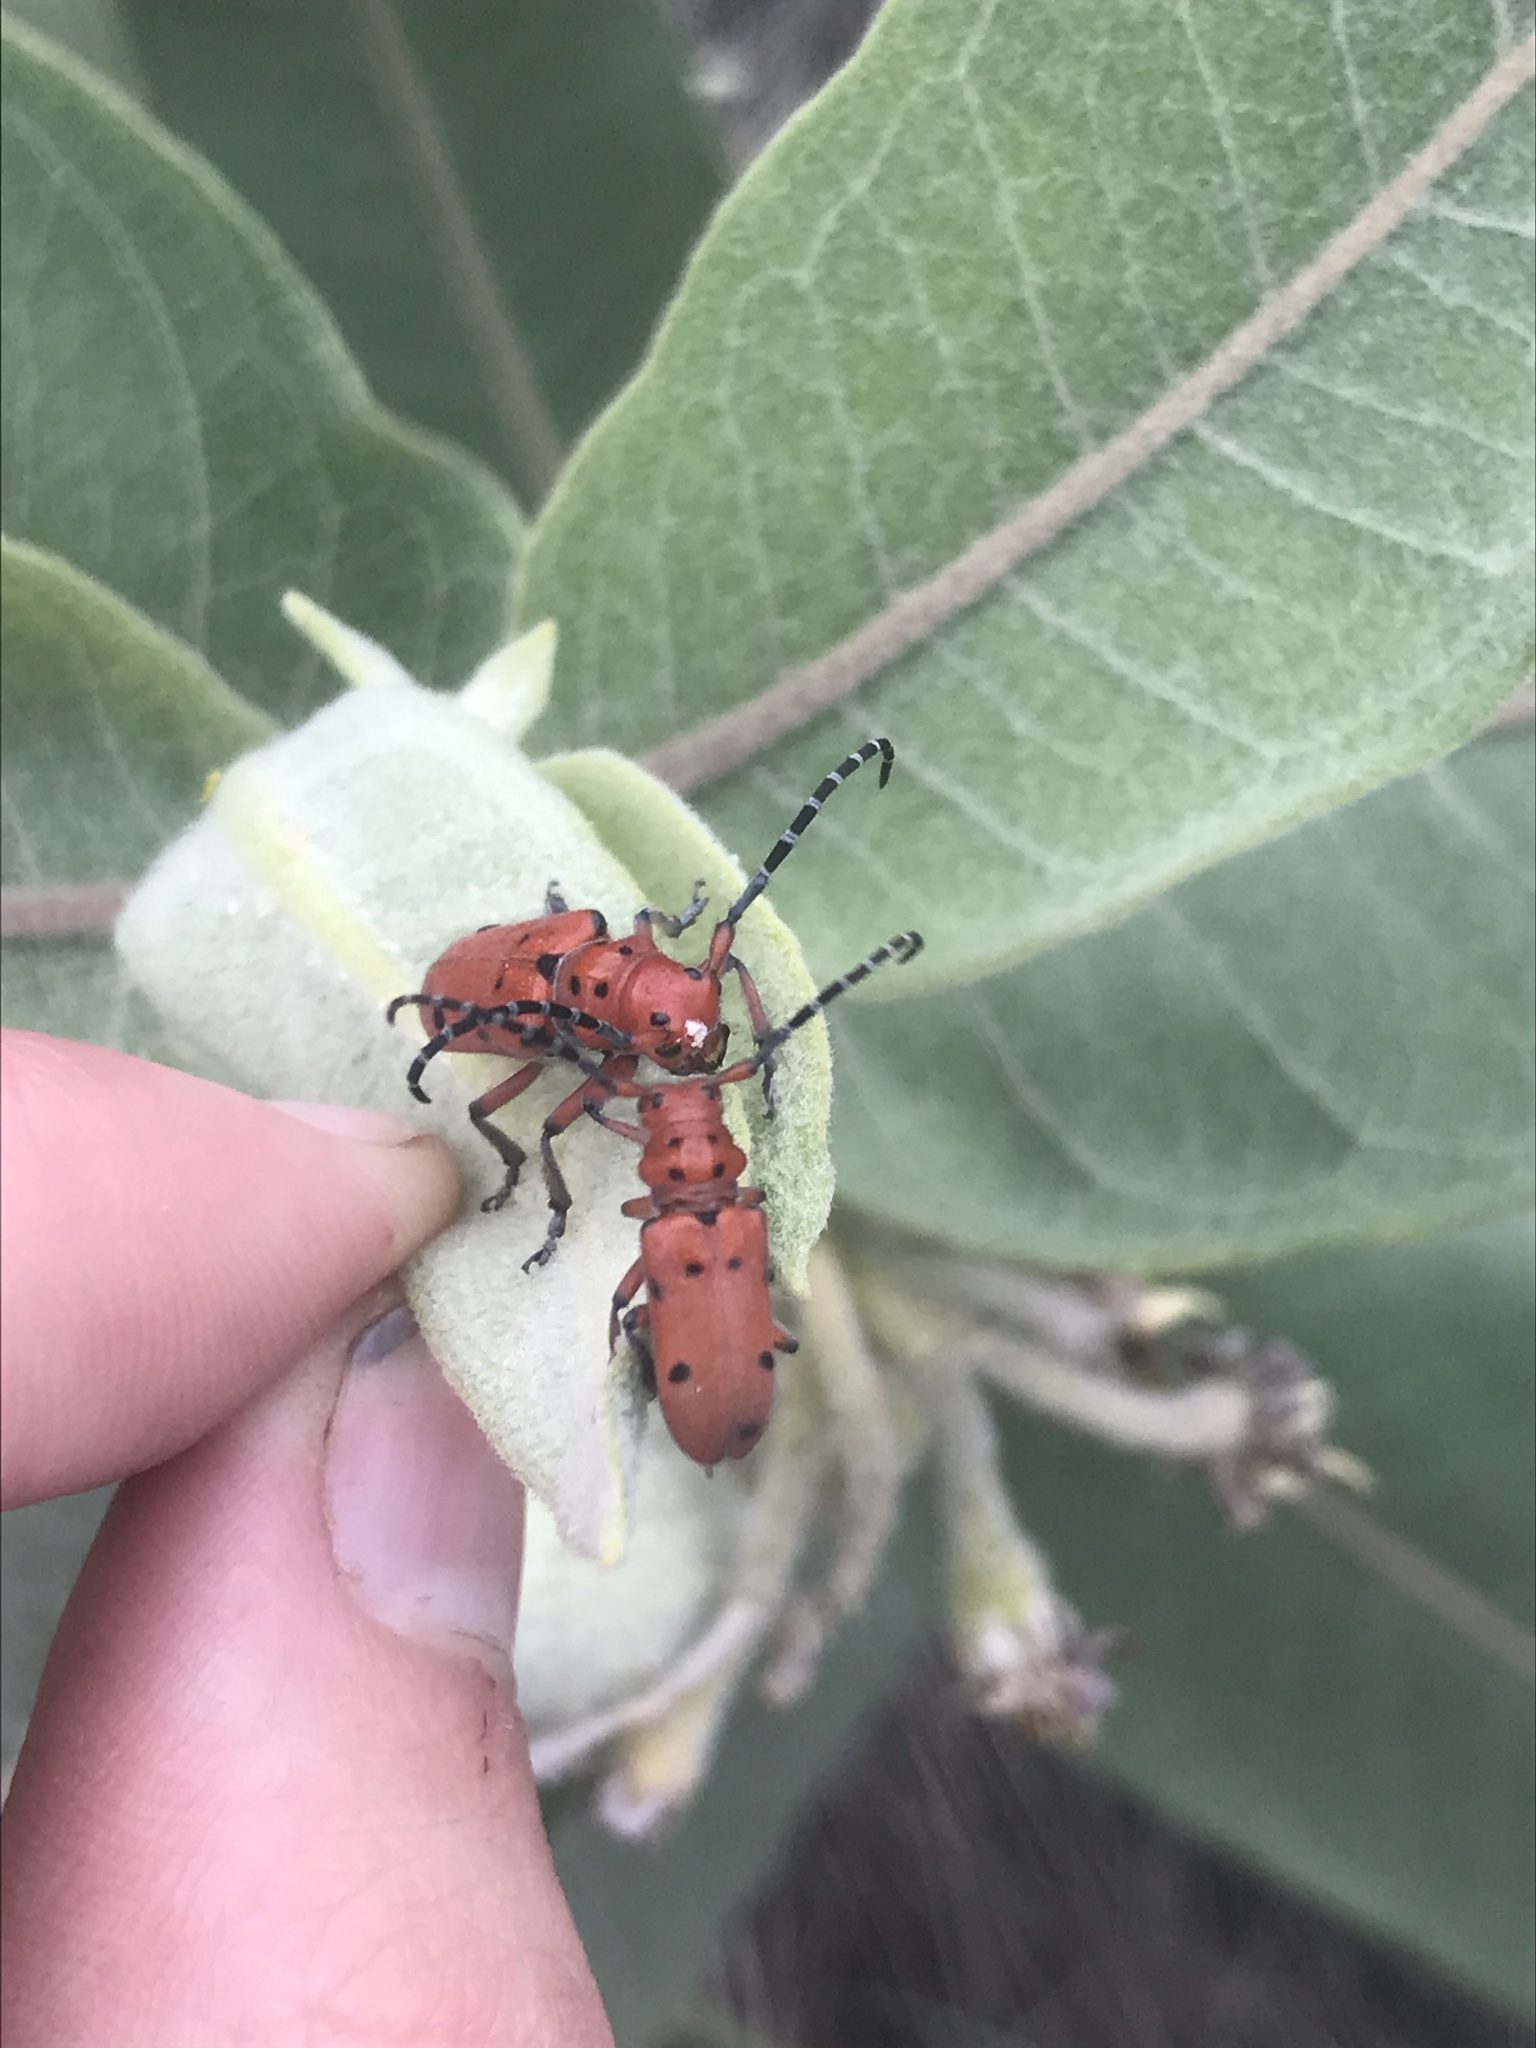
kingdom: Animalia
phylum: Arthropoda
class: Insecta
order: Coleoptera
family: Cerambycidae
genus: Tetraopes
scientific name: Tetraopes femoratus
